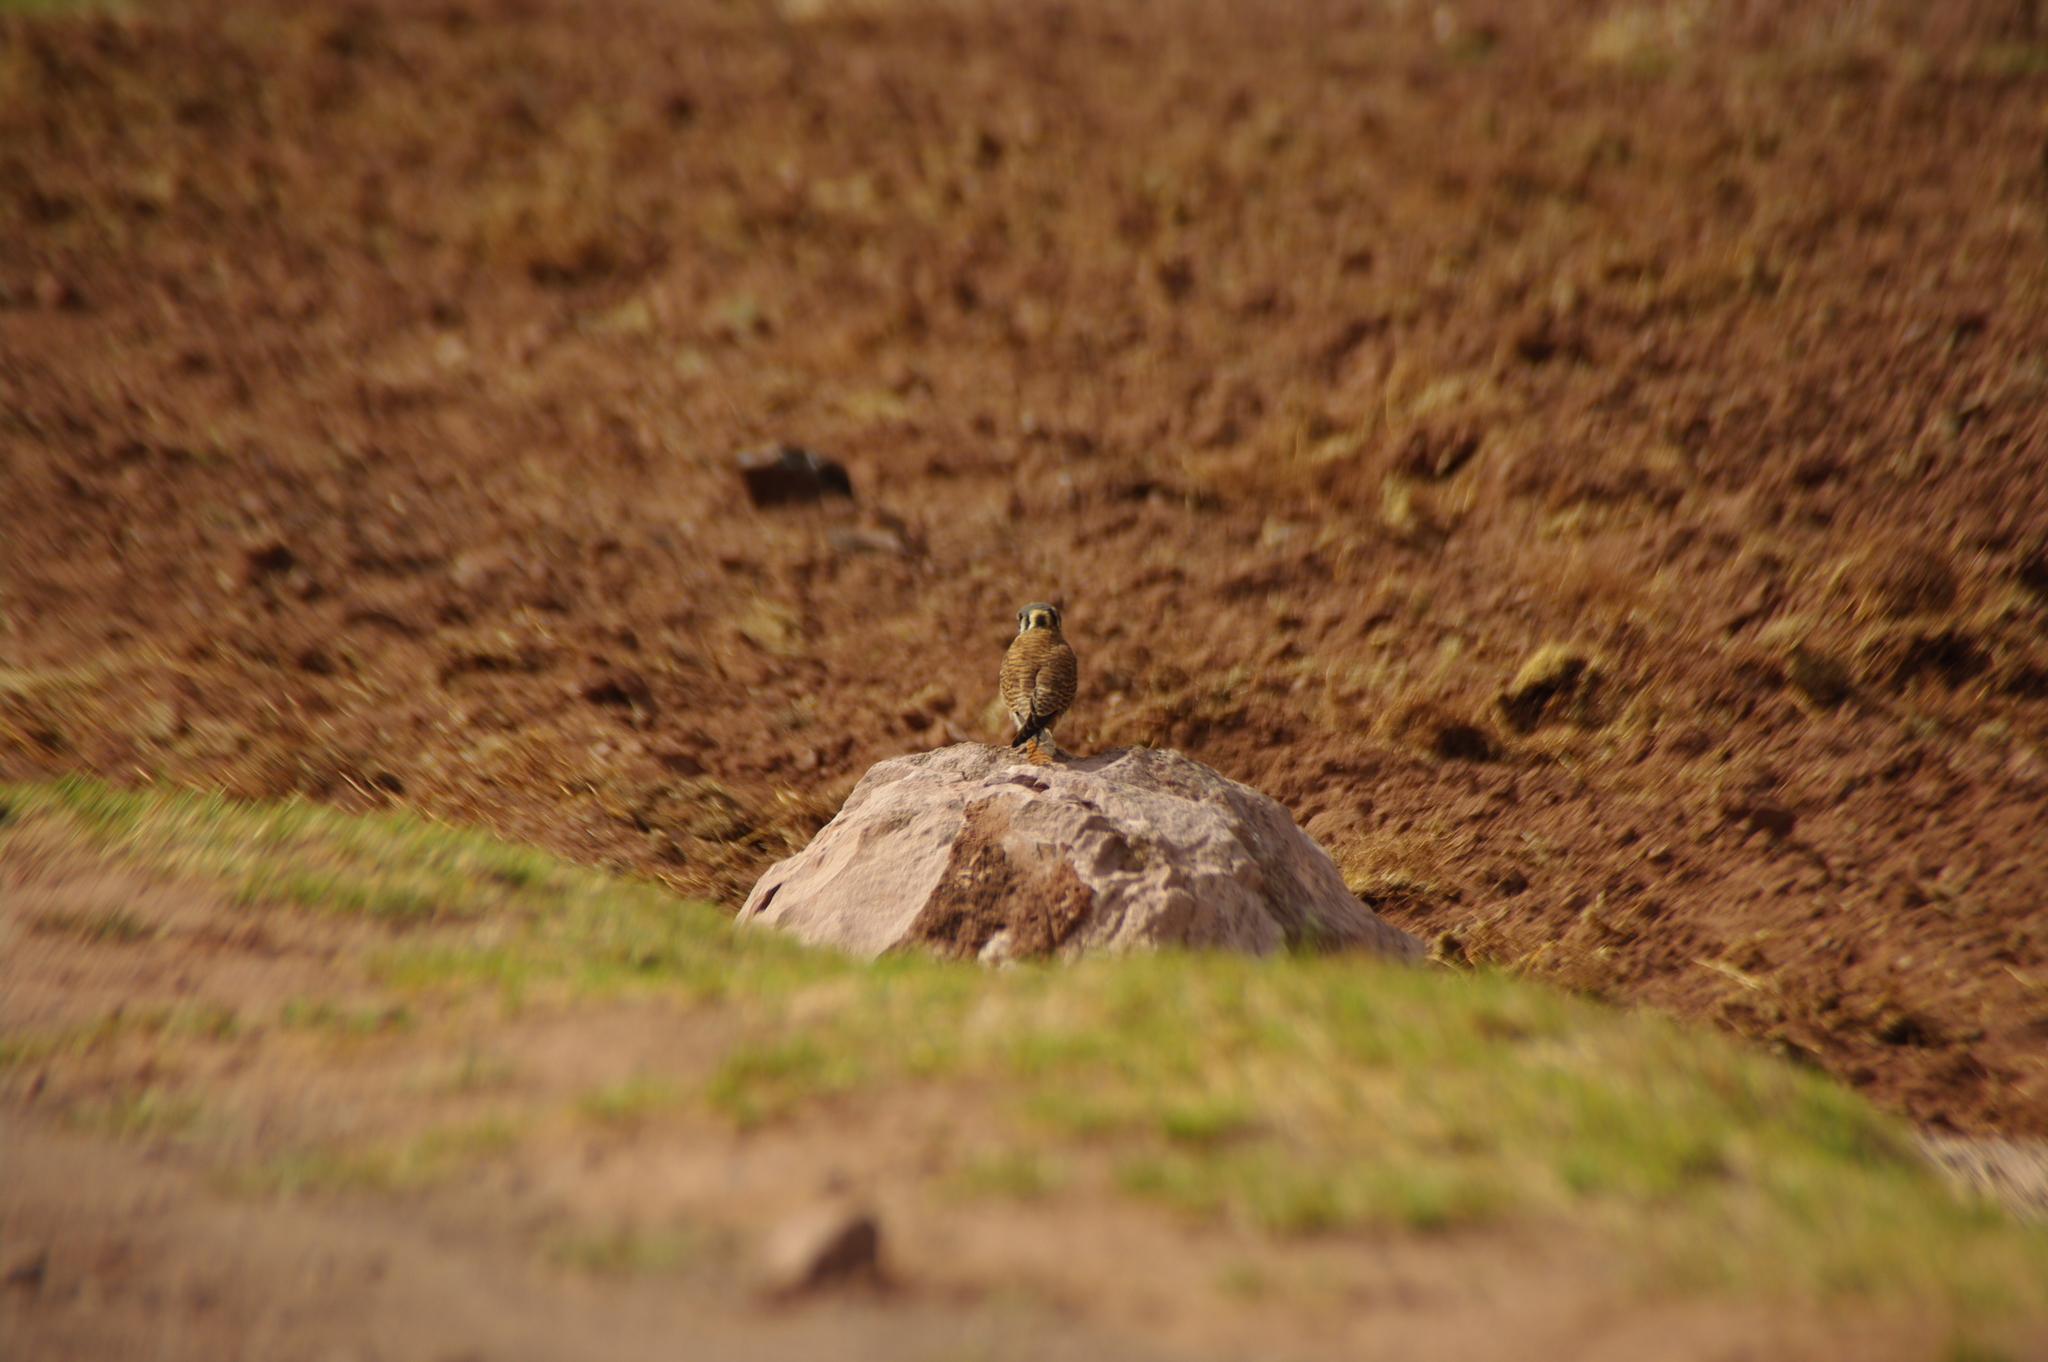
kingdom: Animalia
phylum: Chordata
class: Aves
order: Falconiformes
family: Falconidae
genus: Falco
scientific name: Falco sparverius
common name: American kestrel
